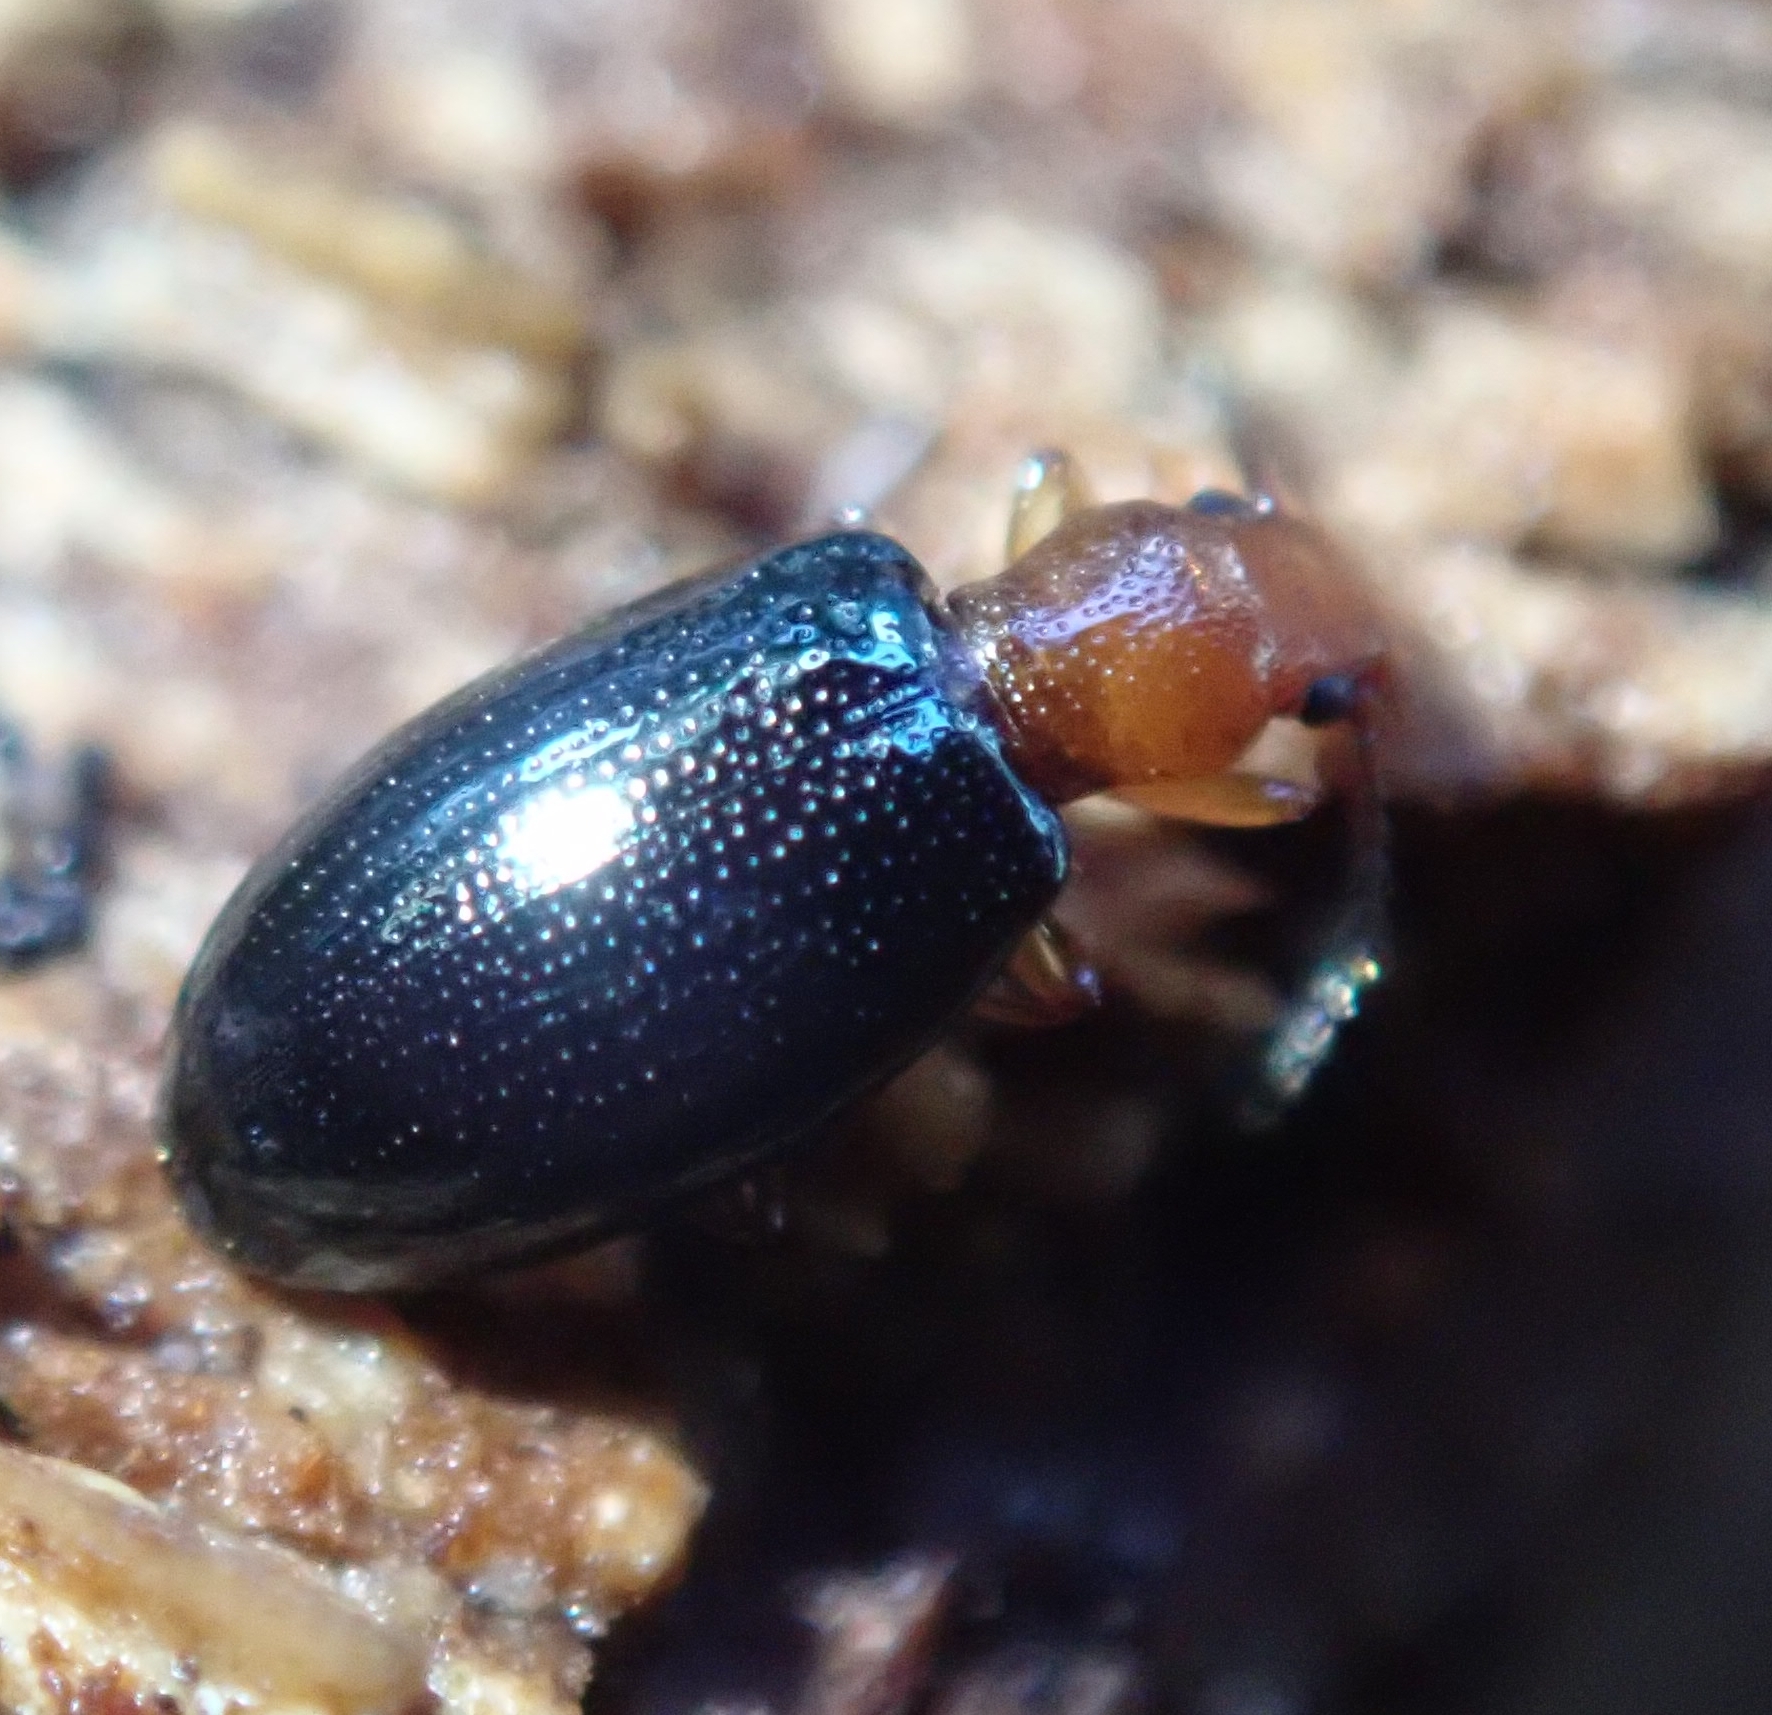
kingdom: Animalia
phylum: Arthropoda
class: Insecta
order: Coleoptera
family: Salpingidae
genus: Vincenzellus
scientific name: Vincenzellus ruficollis
